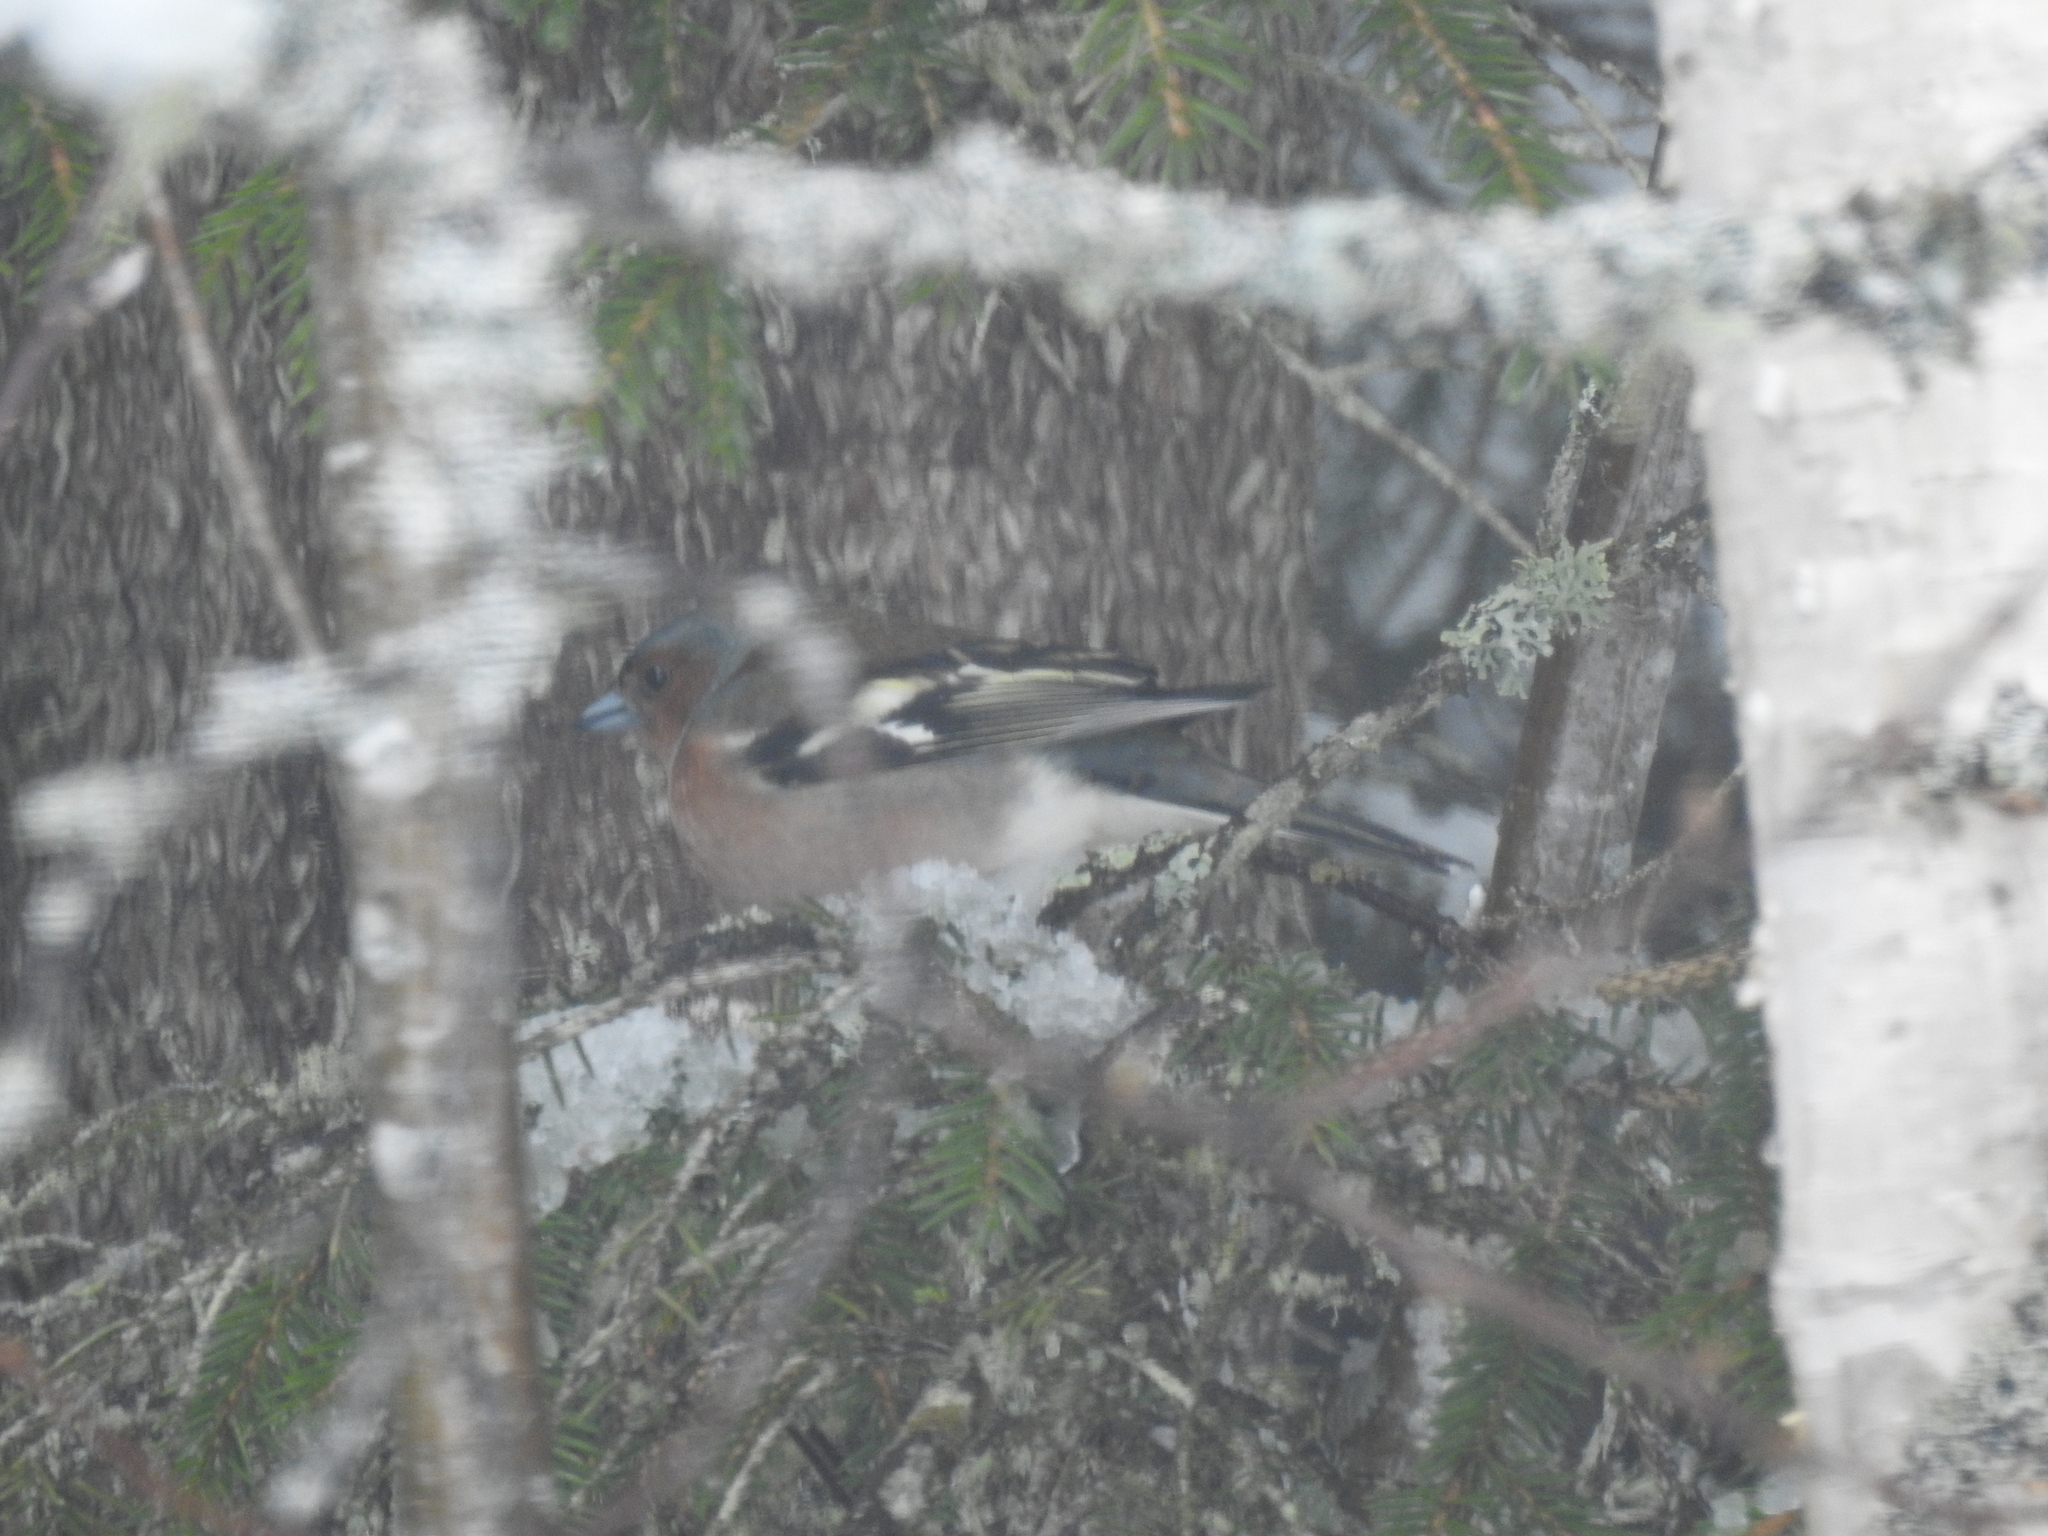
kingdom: Animalia
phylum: Chordata
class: Aves
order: Passeriformes
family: Fringillidae
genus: Fringilla
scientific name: Fringilla coelebs
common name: Common chaffinch
